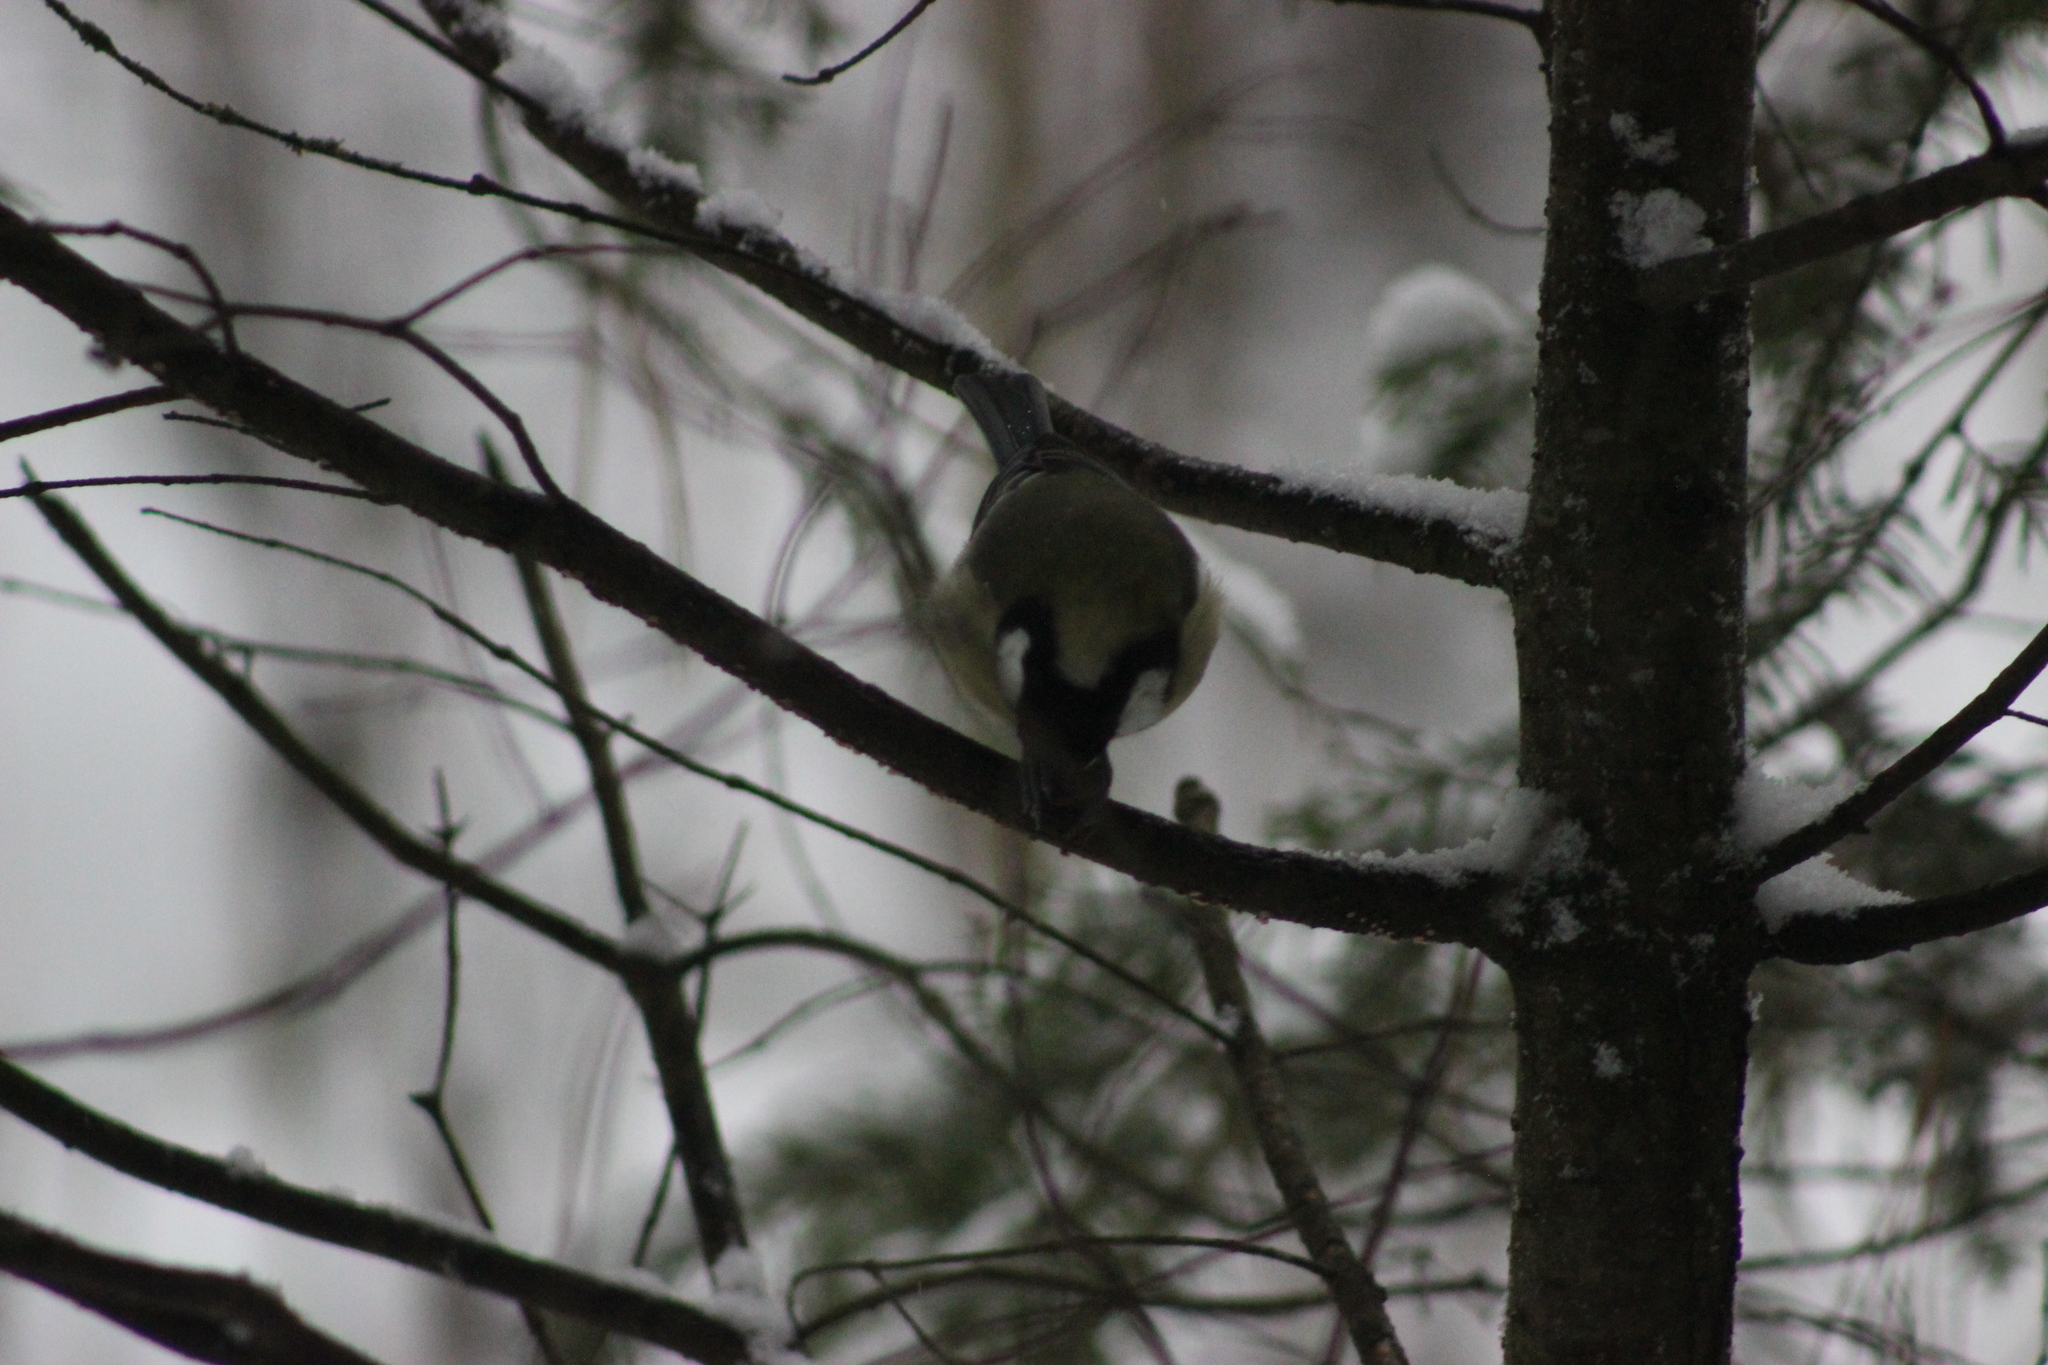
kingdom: Animalia
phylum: Chordata
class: Aves
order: Passeriformes
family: Paridae
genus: Parus
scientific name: Parus major
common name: Great tit
